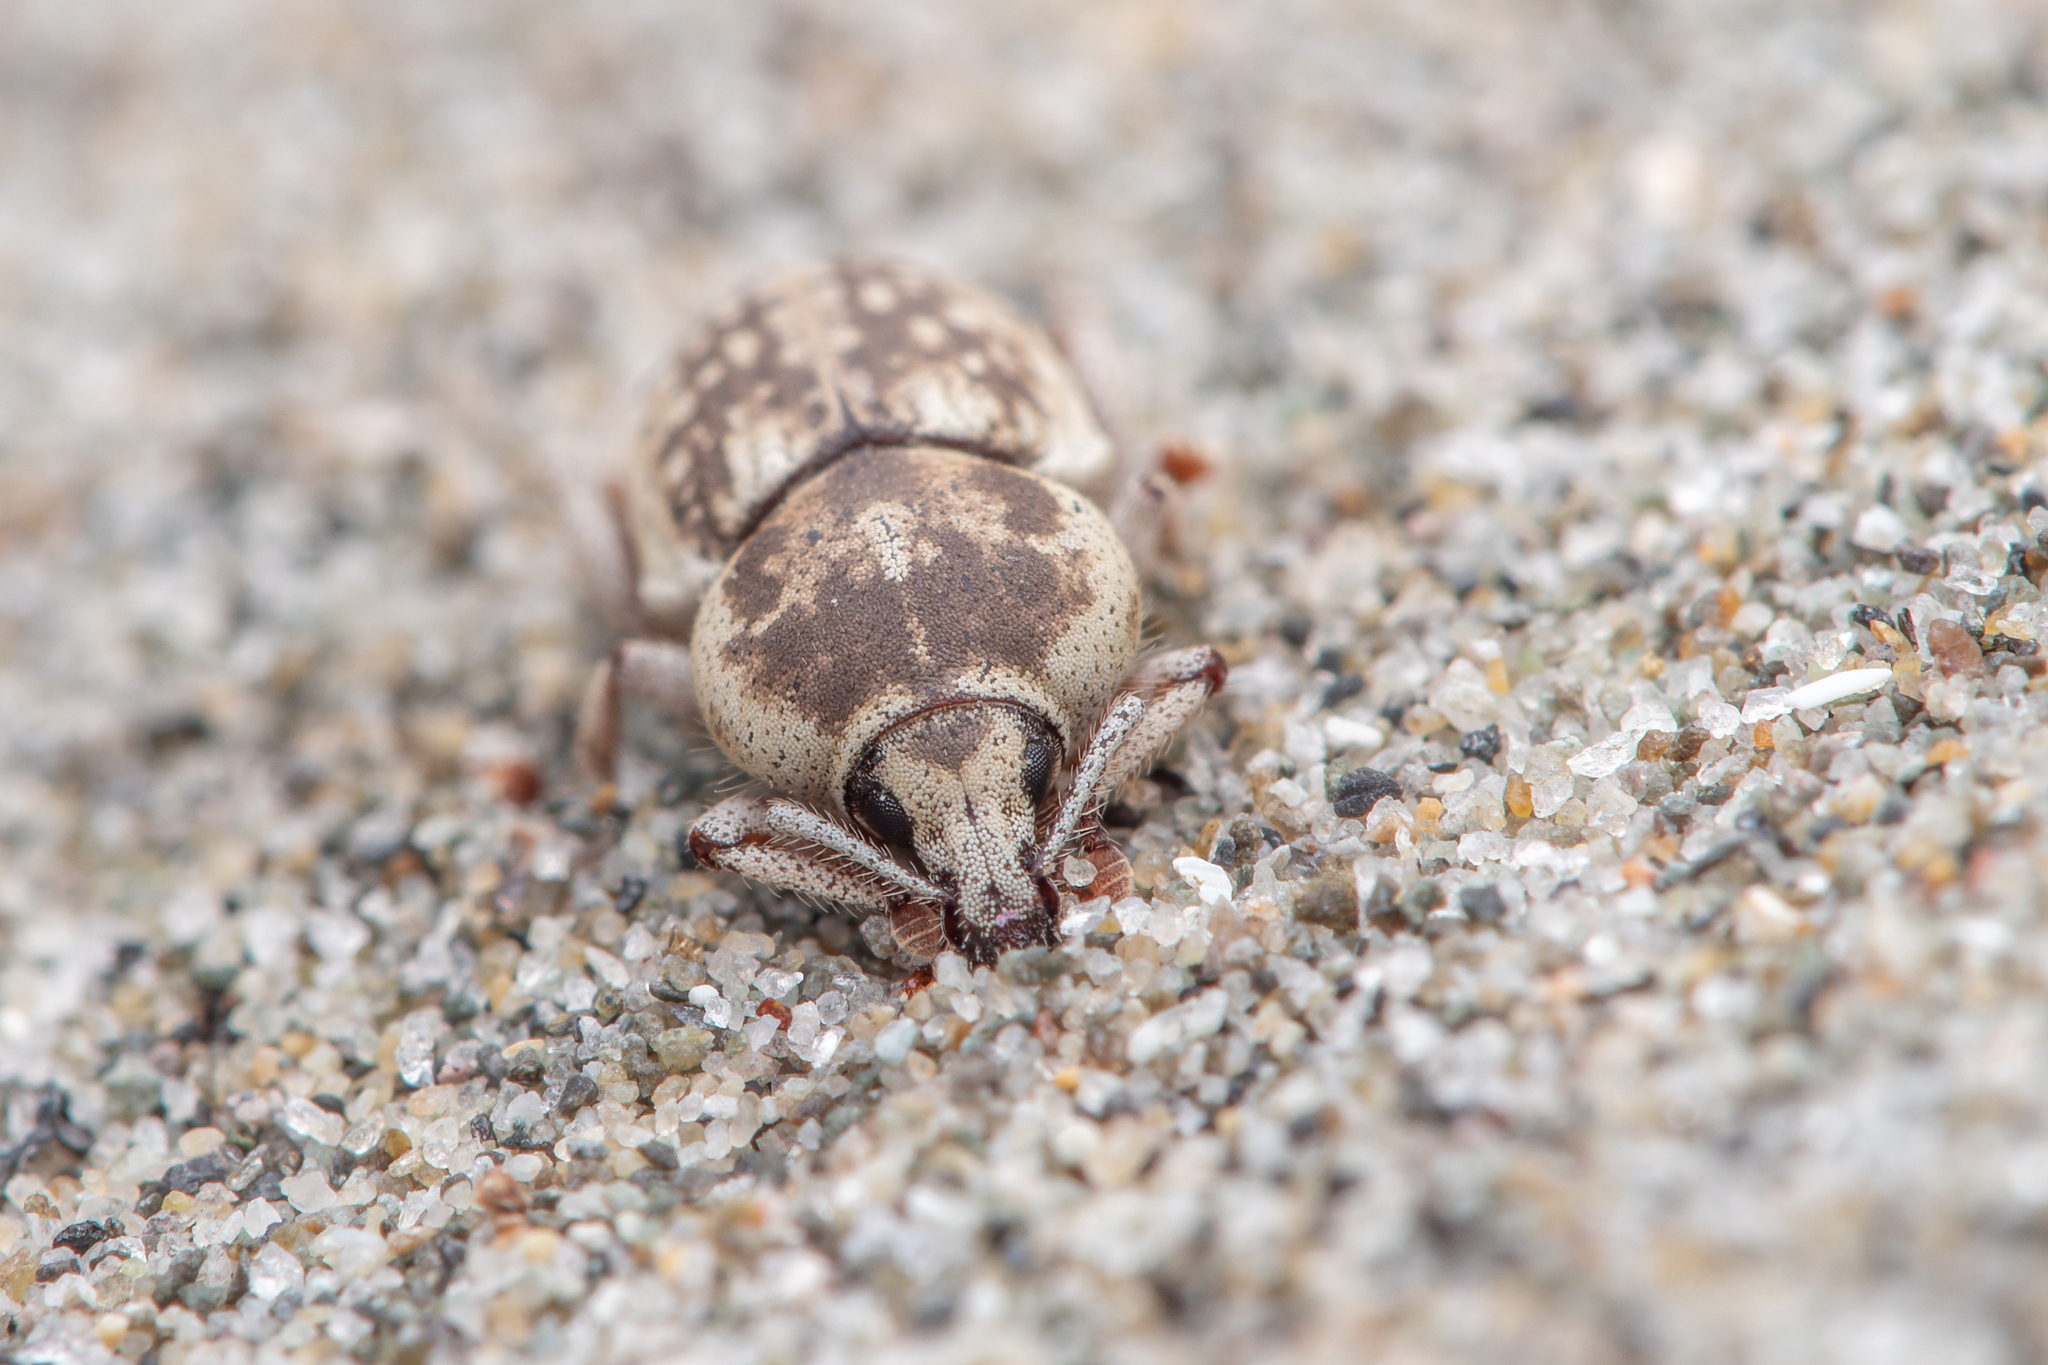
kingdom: Animalia
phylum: Arthropoda
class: Insecta
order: Coleoptera
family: Curculionidae
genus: Cecyropa
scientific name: Cecyropa modesta
